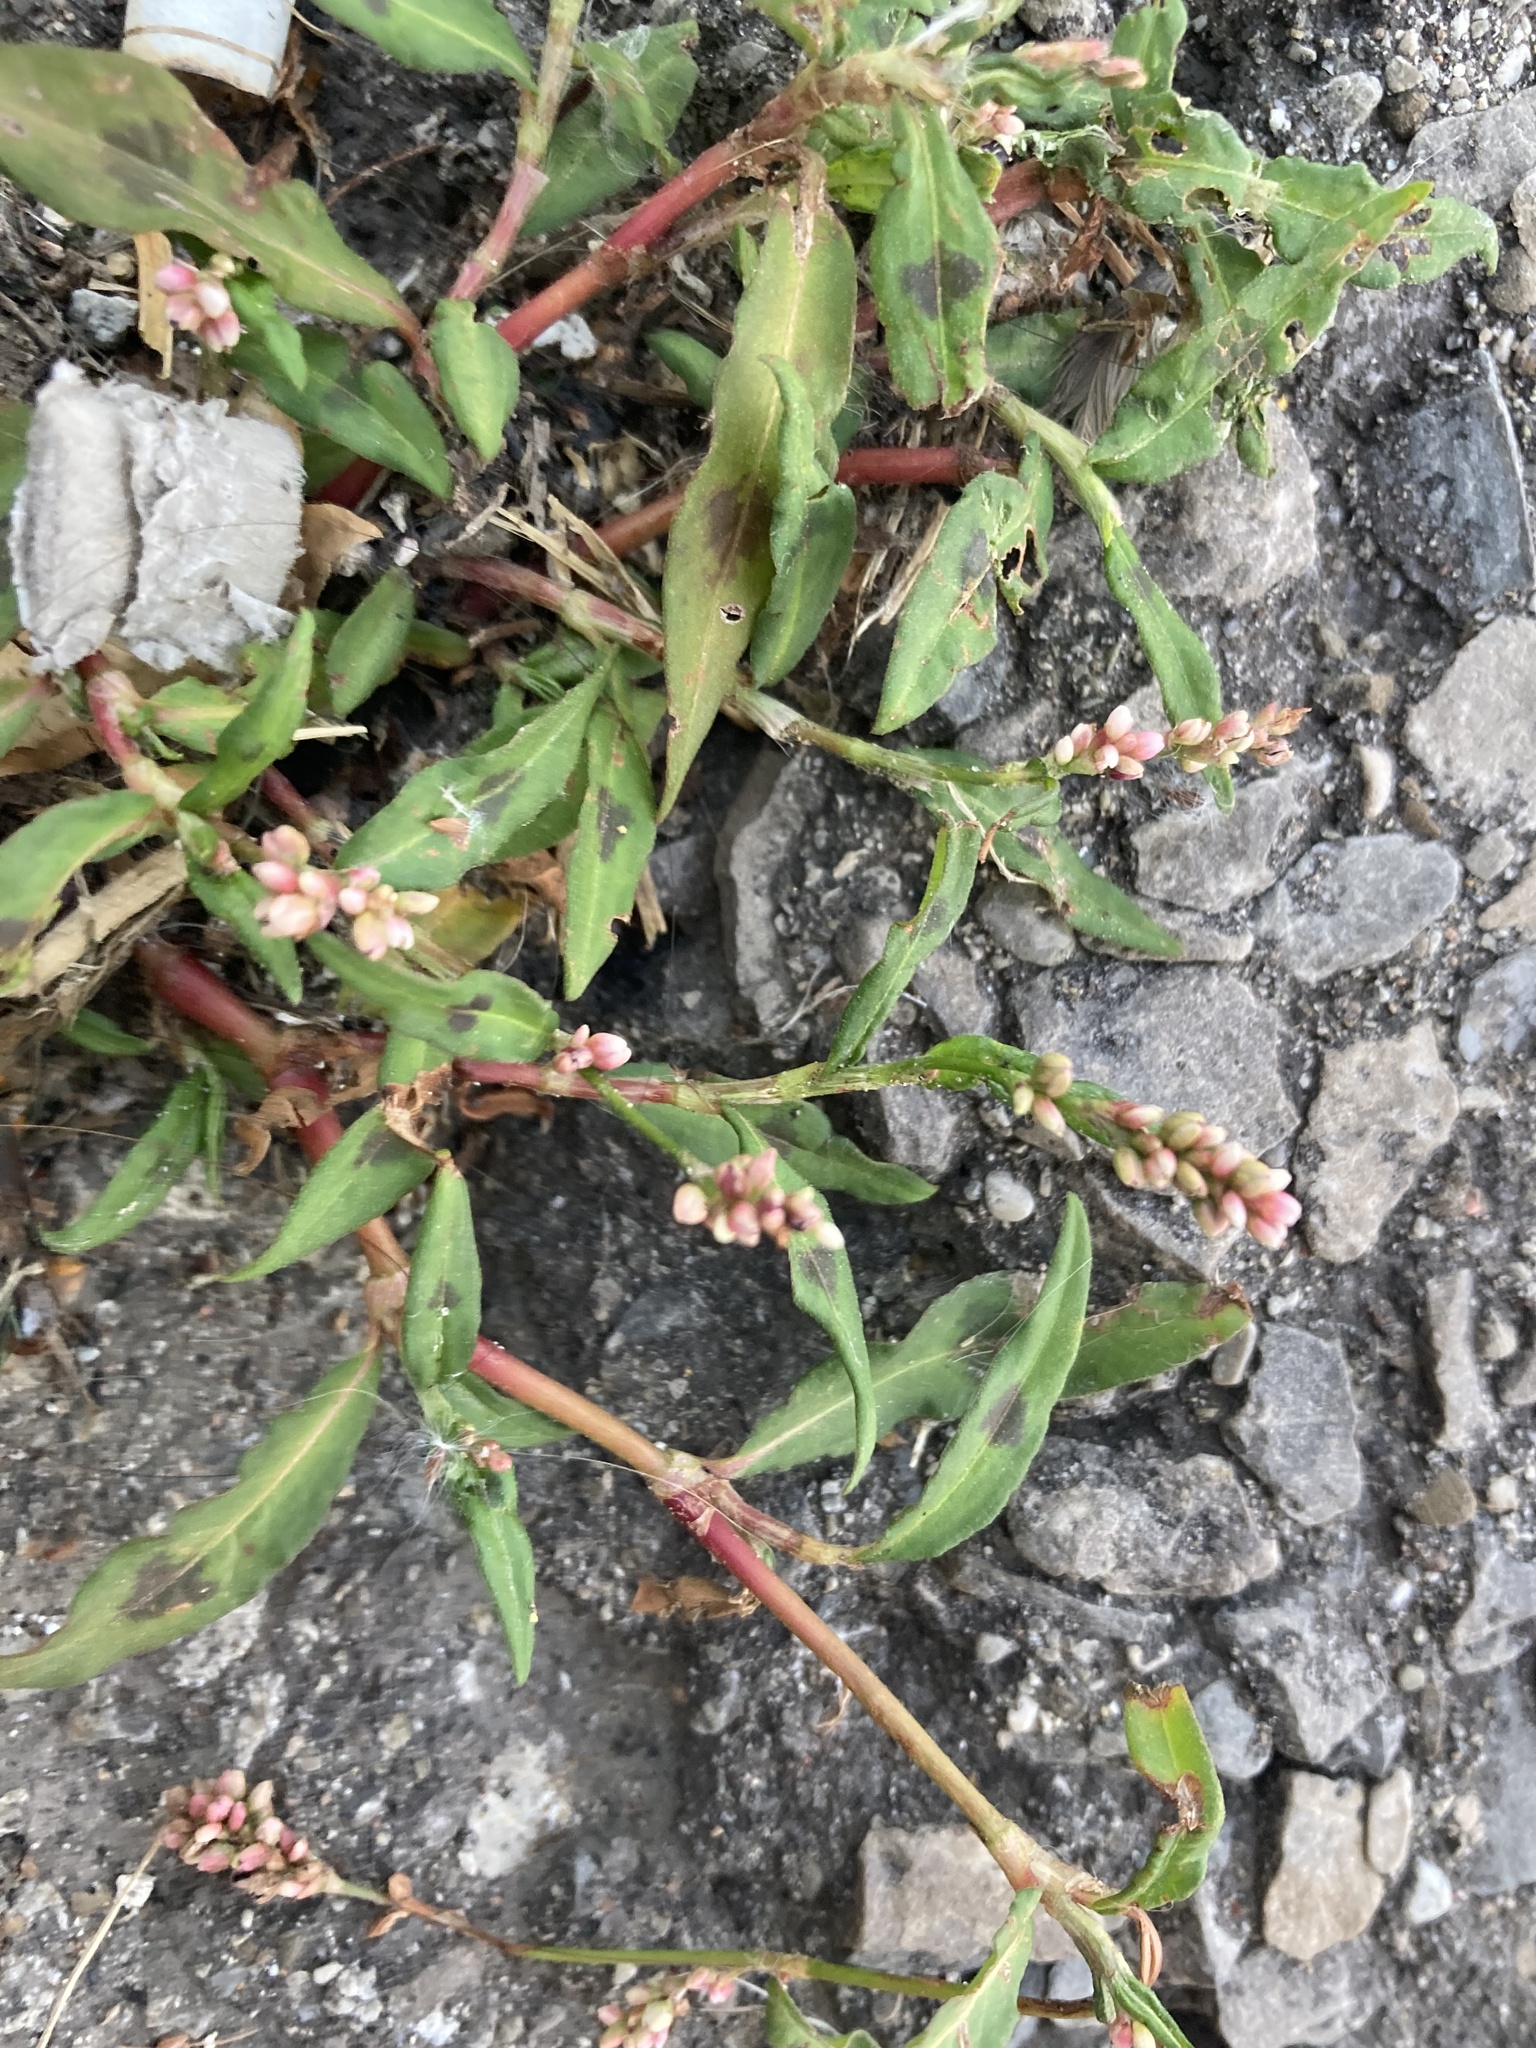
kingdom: Plantae
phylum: Tracheophyta
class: Magnoliopsida
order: Caryophyllales
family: Polygonaceae
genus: Persicaria
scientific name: Persicaria maculosa
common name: Redshank
